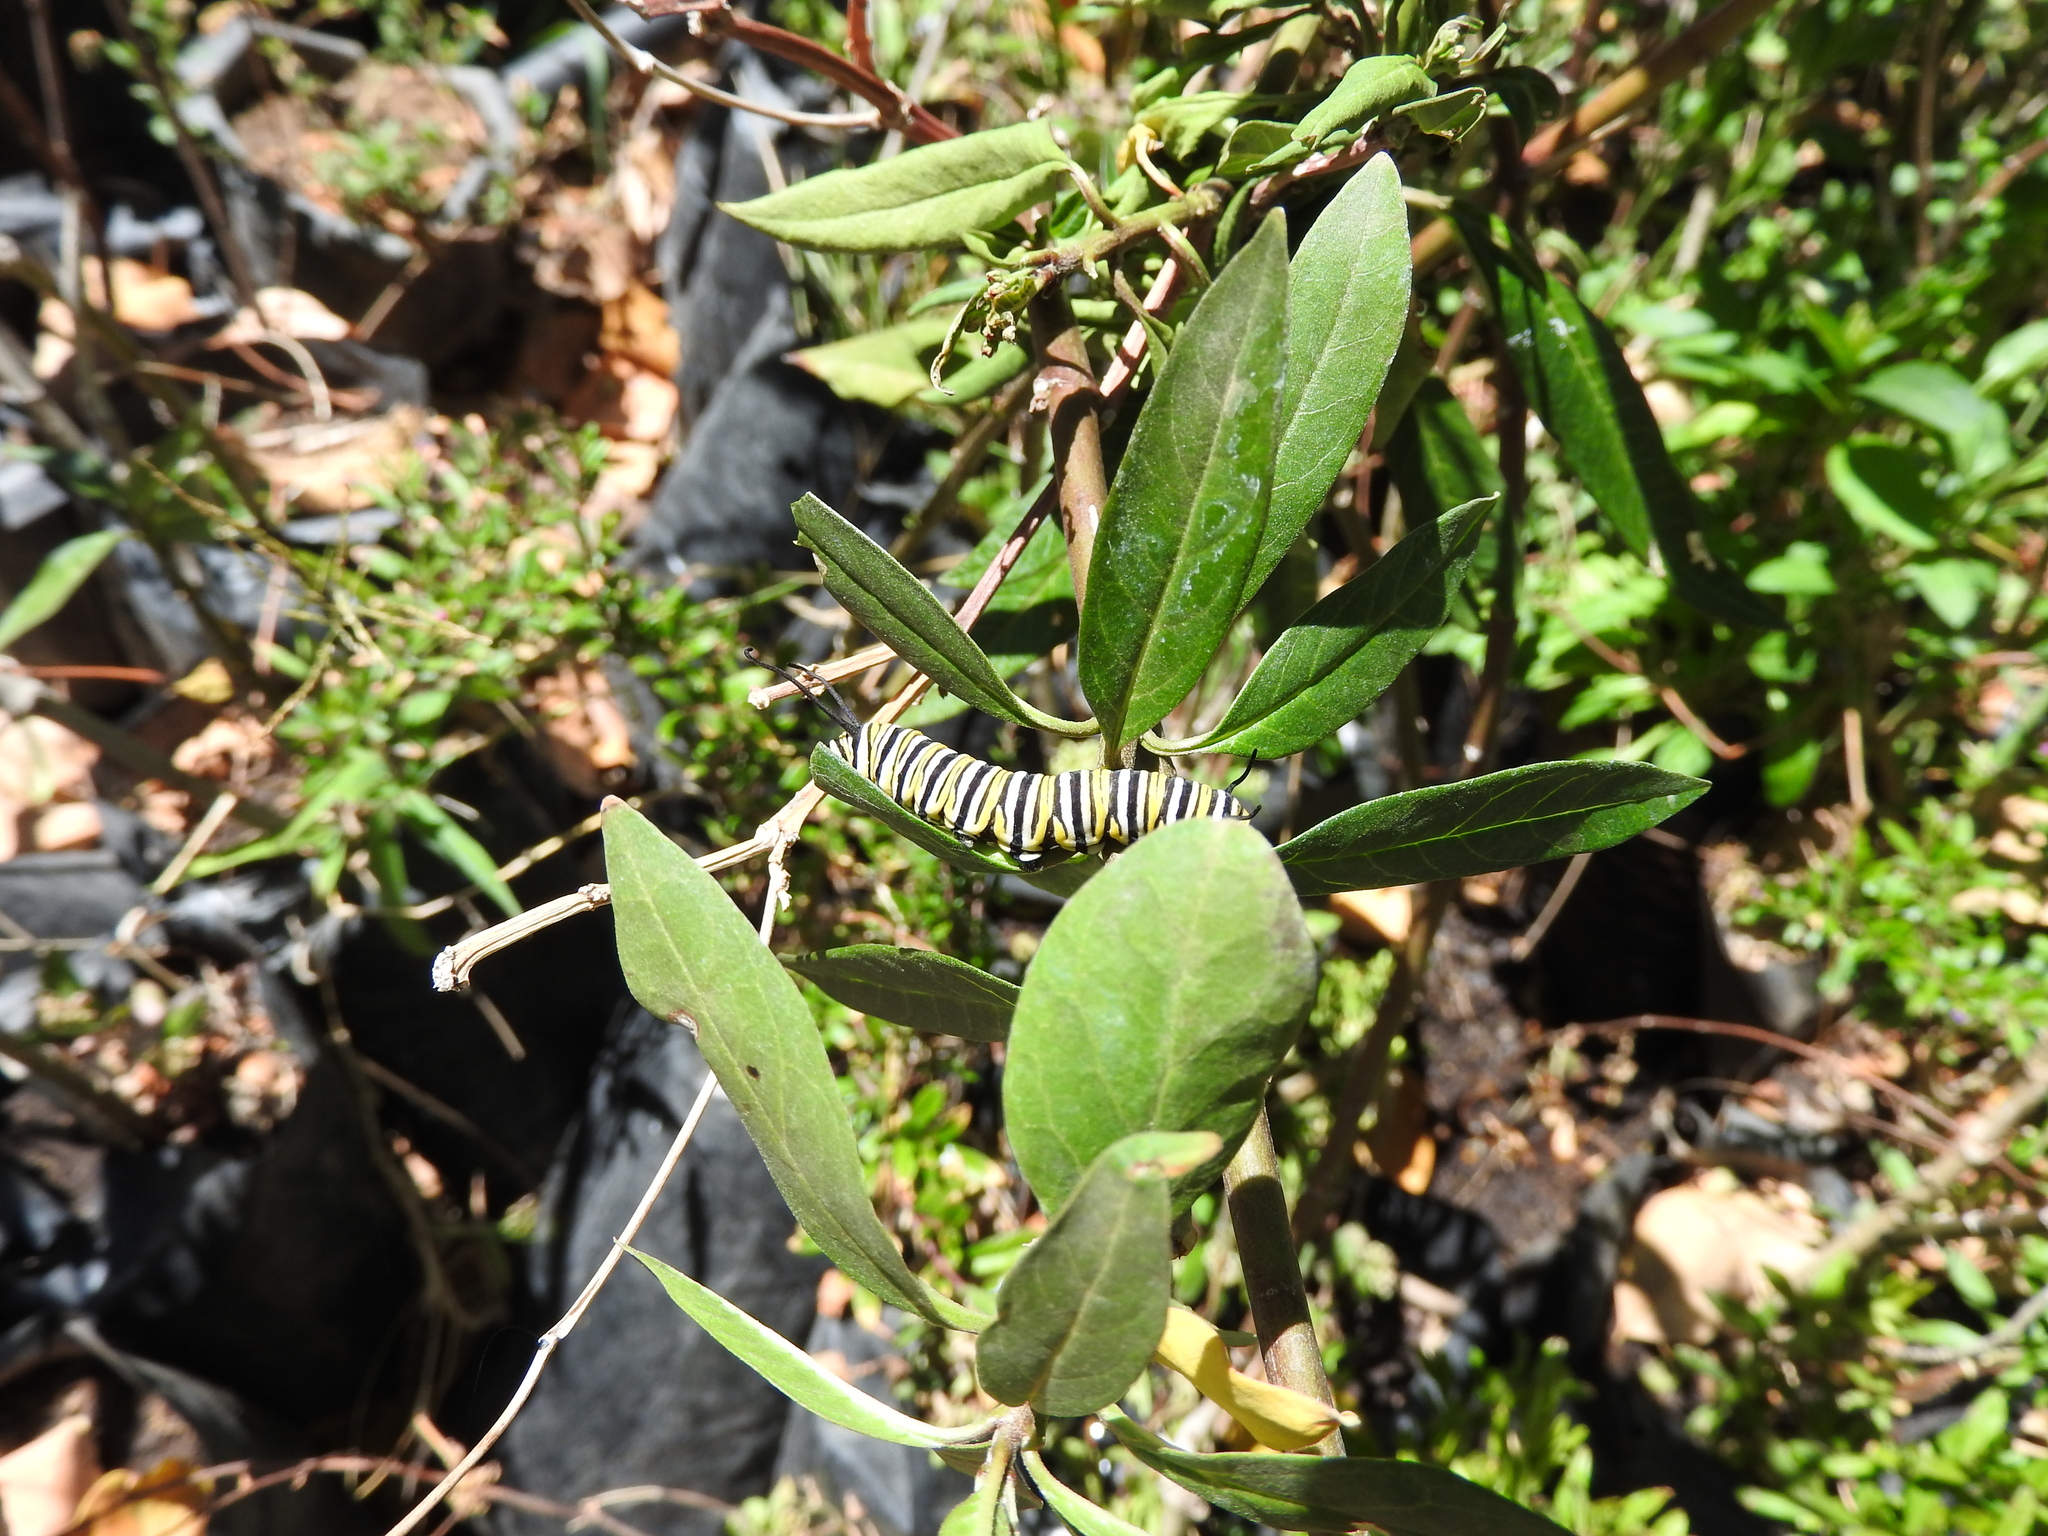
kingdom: Animalia
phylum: Arthropoda
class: Insecta
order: Lepidoptera
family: Nymphalidae
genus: Danaus
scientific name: Danaus plexippus
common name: Monarch
